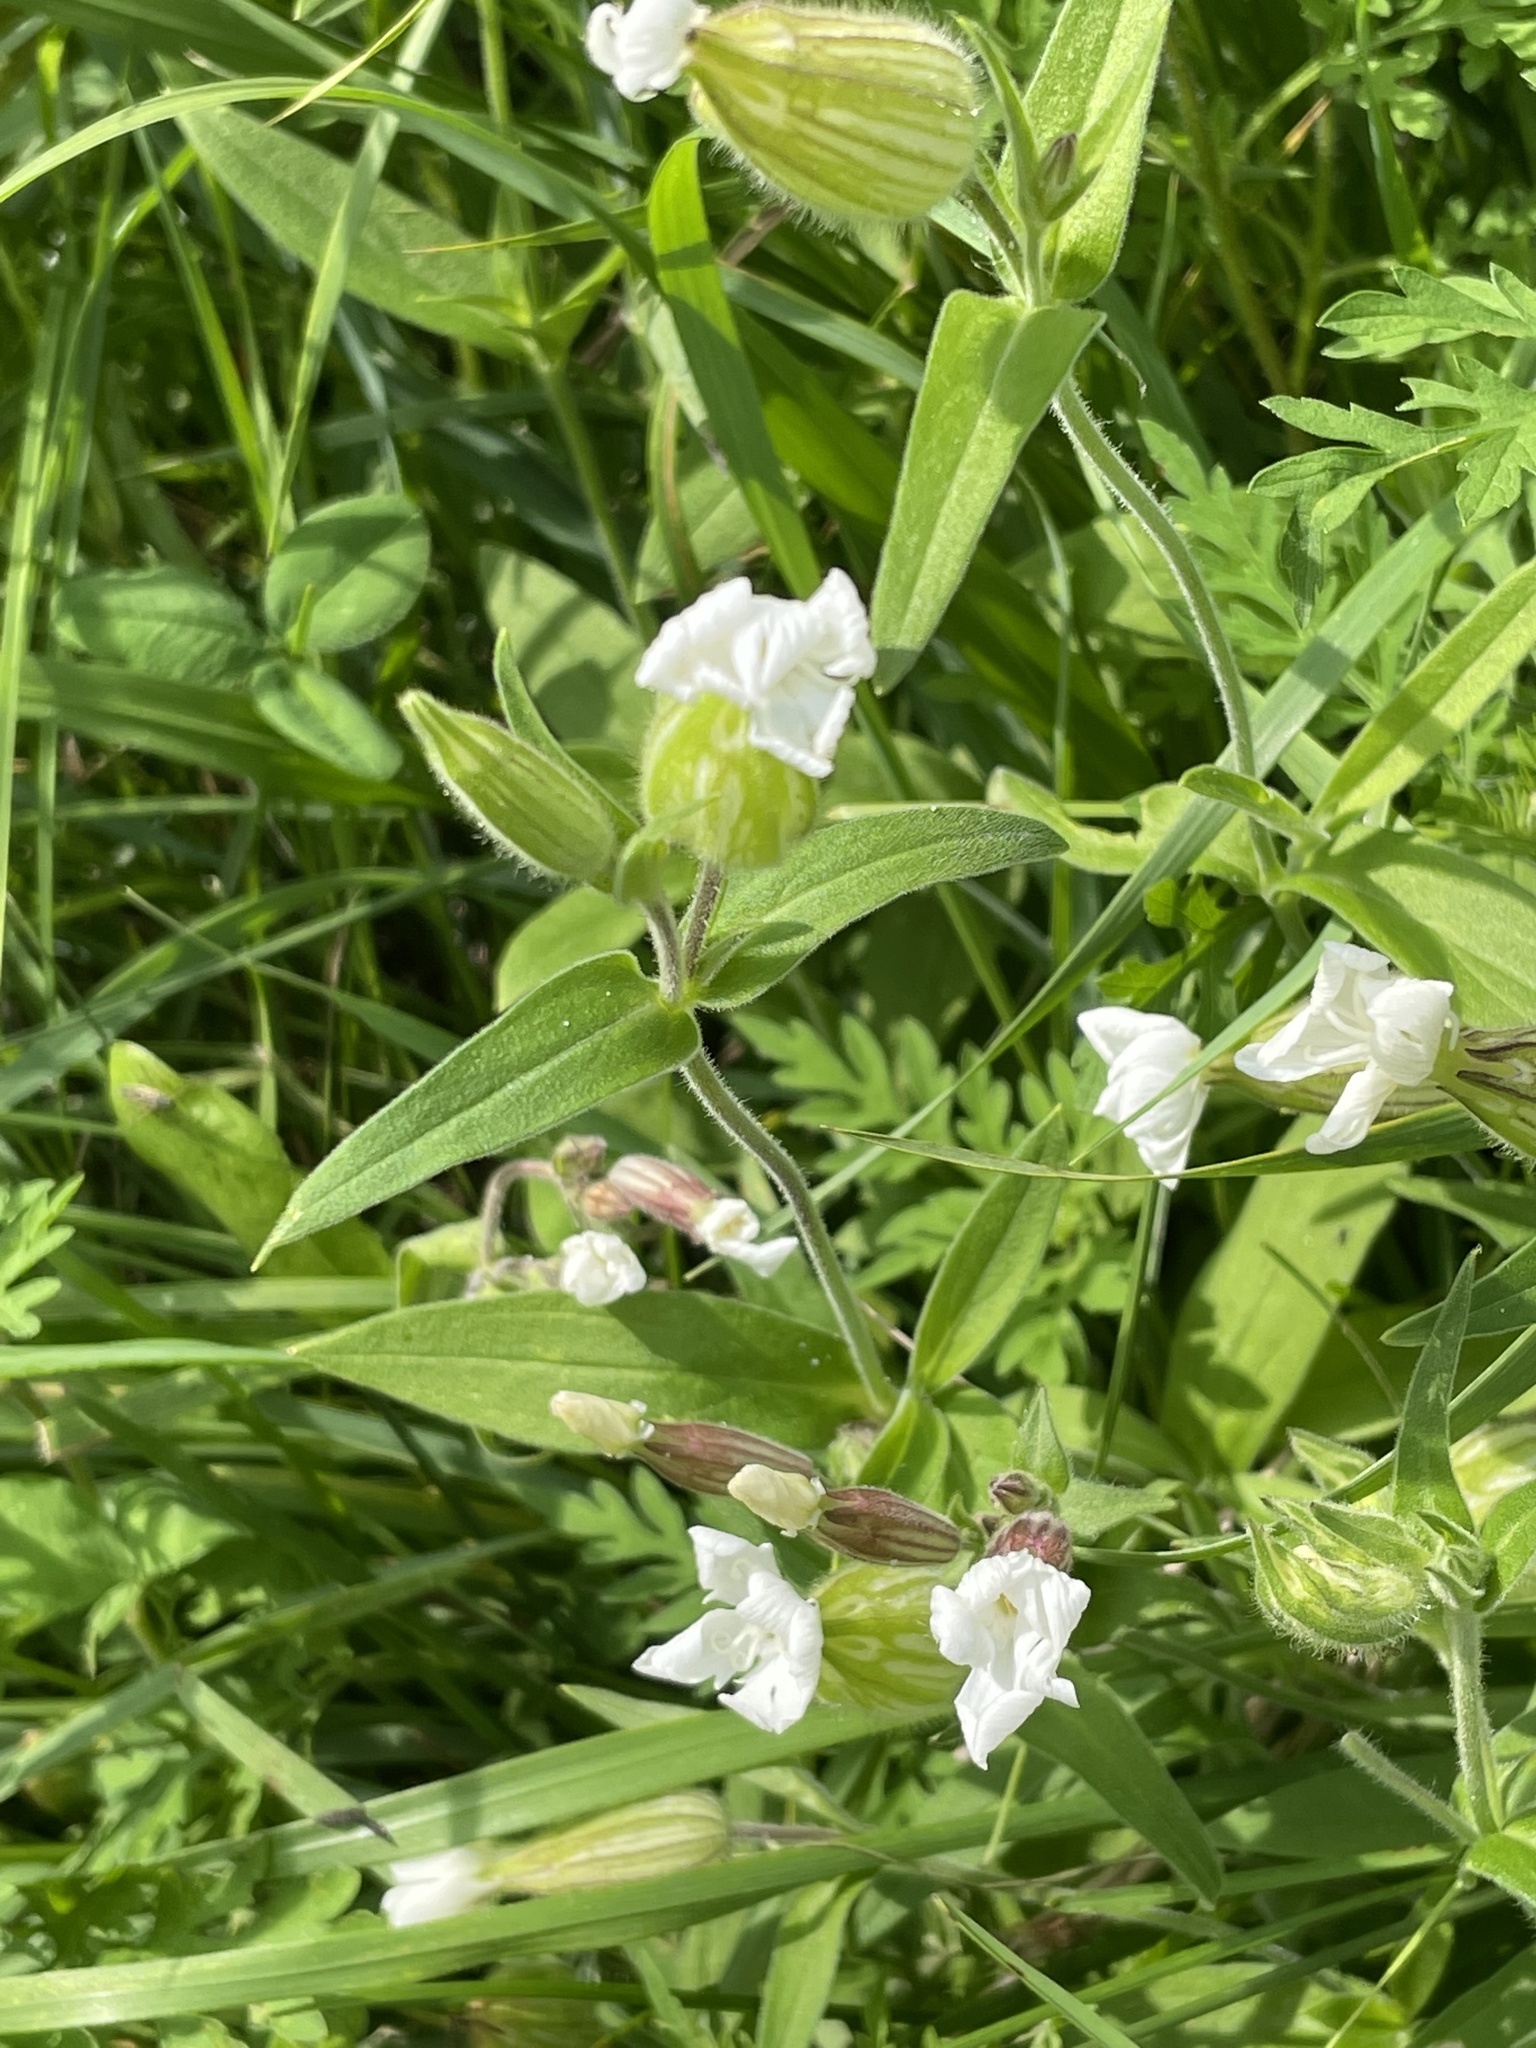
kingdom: Plantae
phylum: Tracheophyta
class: Magnoliopsida
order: Caryophyllales
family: Caryophyllaceae
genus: Silene
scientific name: Silene latifolia
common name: White campion
